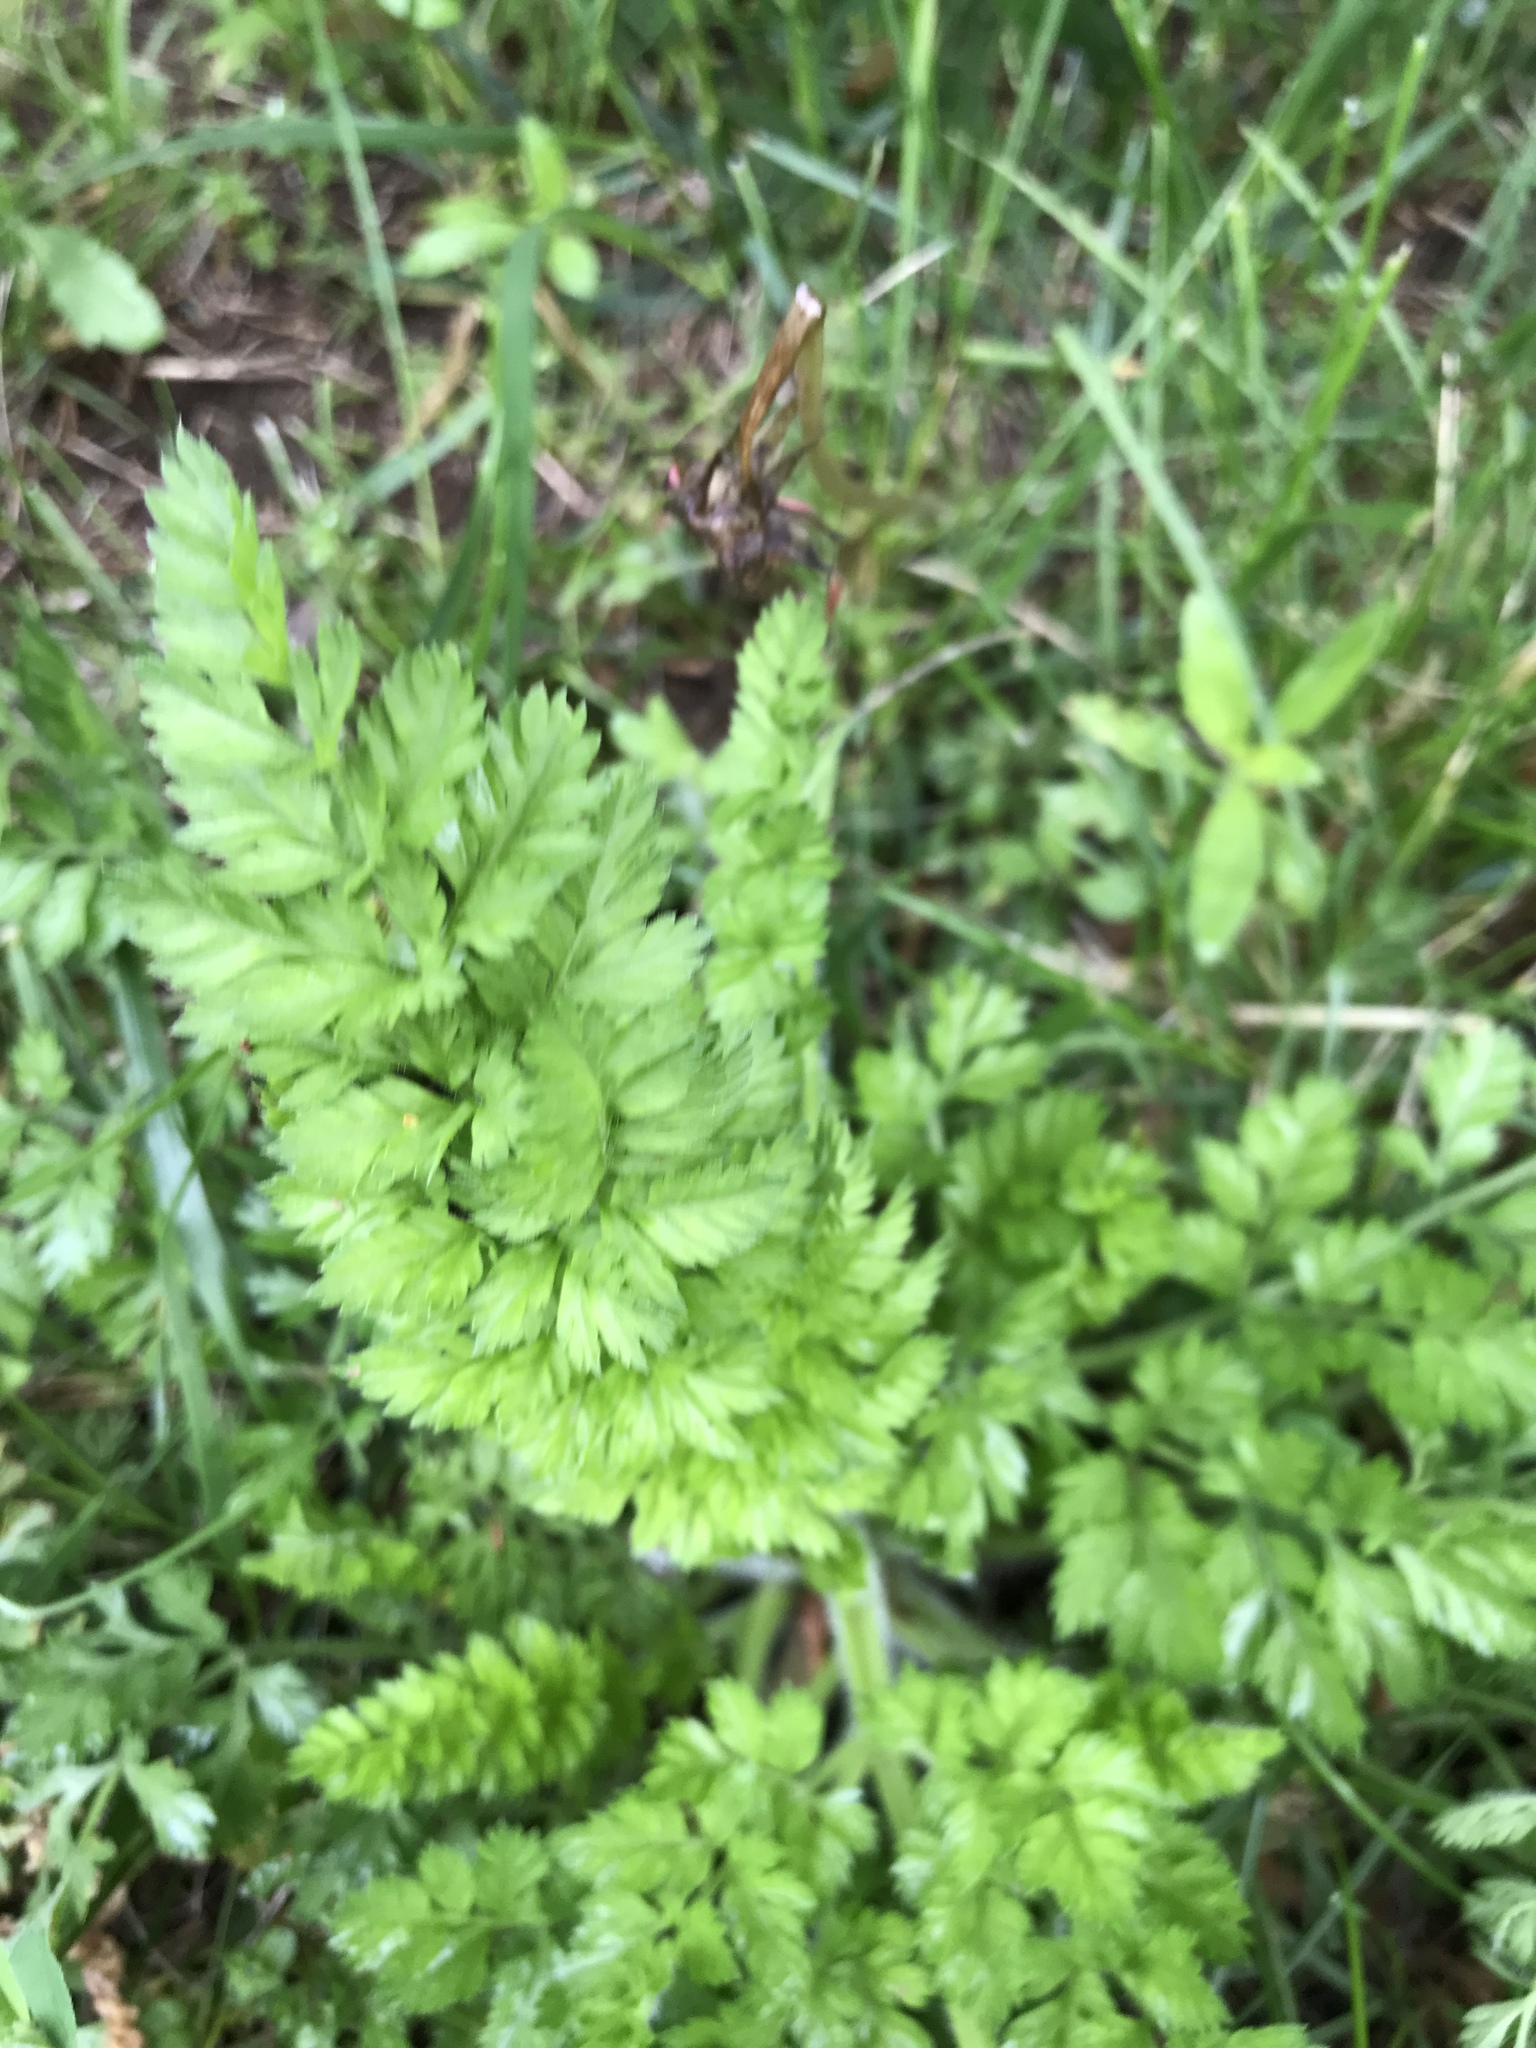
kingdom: Plantae
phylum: Tracheophyta
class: Magnoliopsida
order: Apiales
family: Apiaceae
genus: Daucus
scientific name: Daucus carota
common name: Wild carrot
